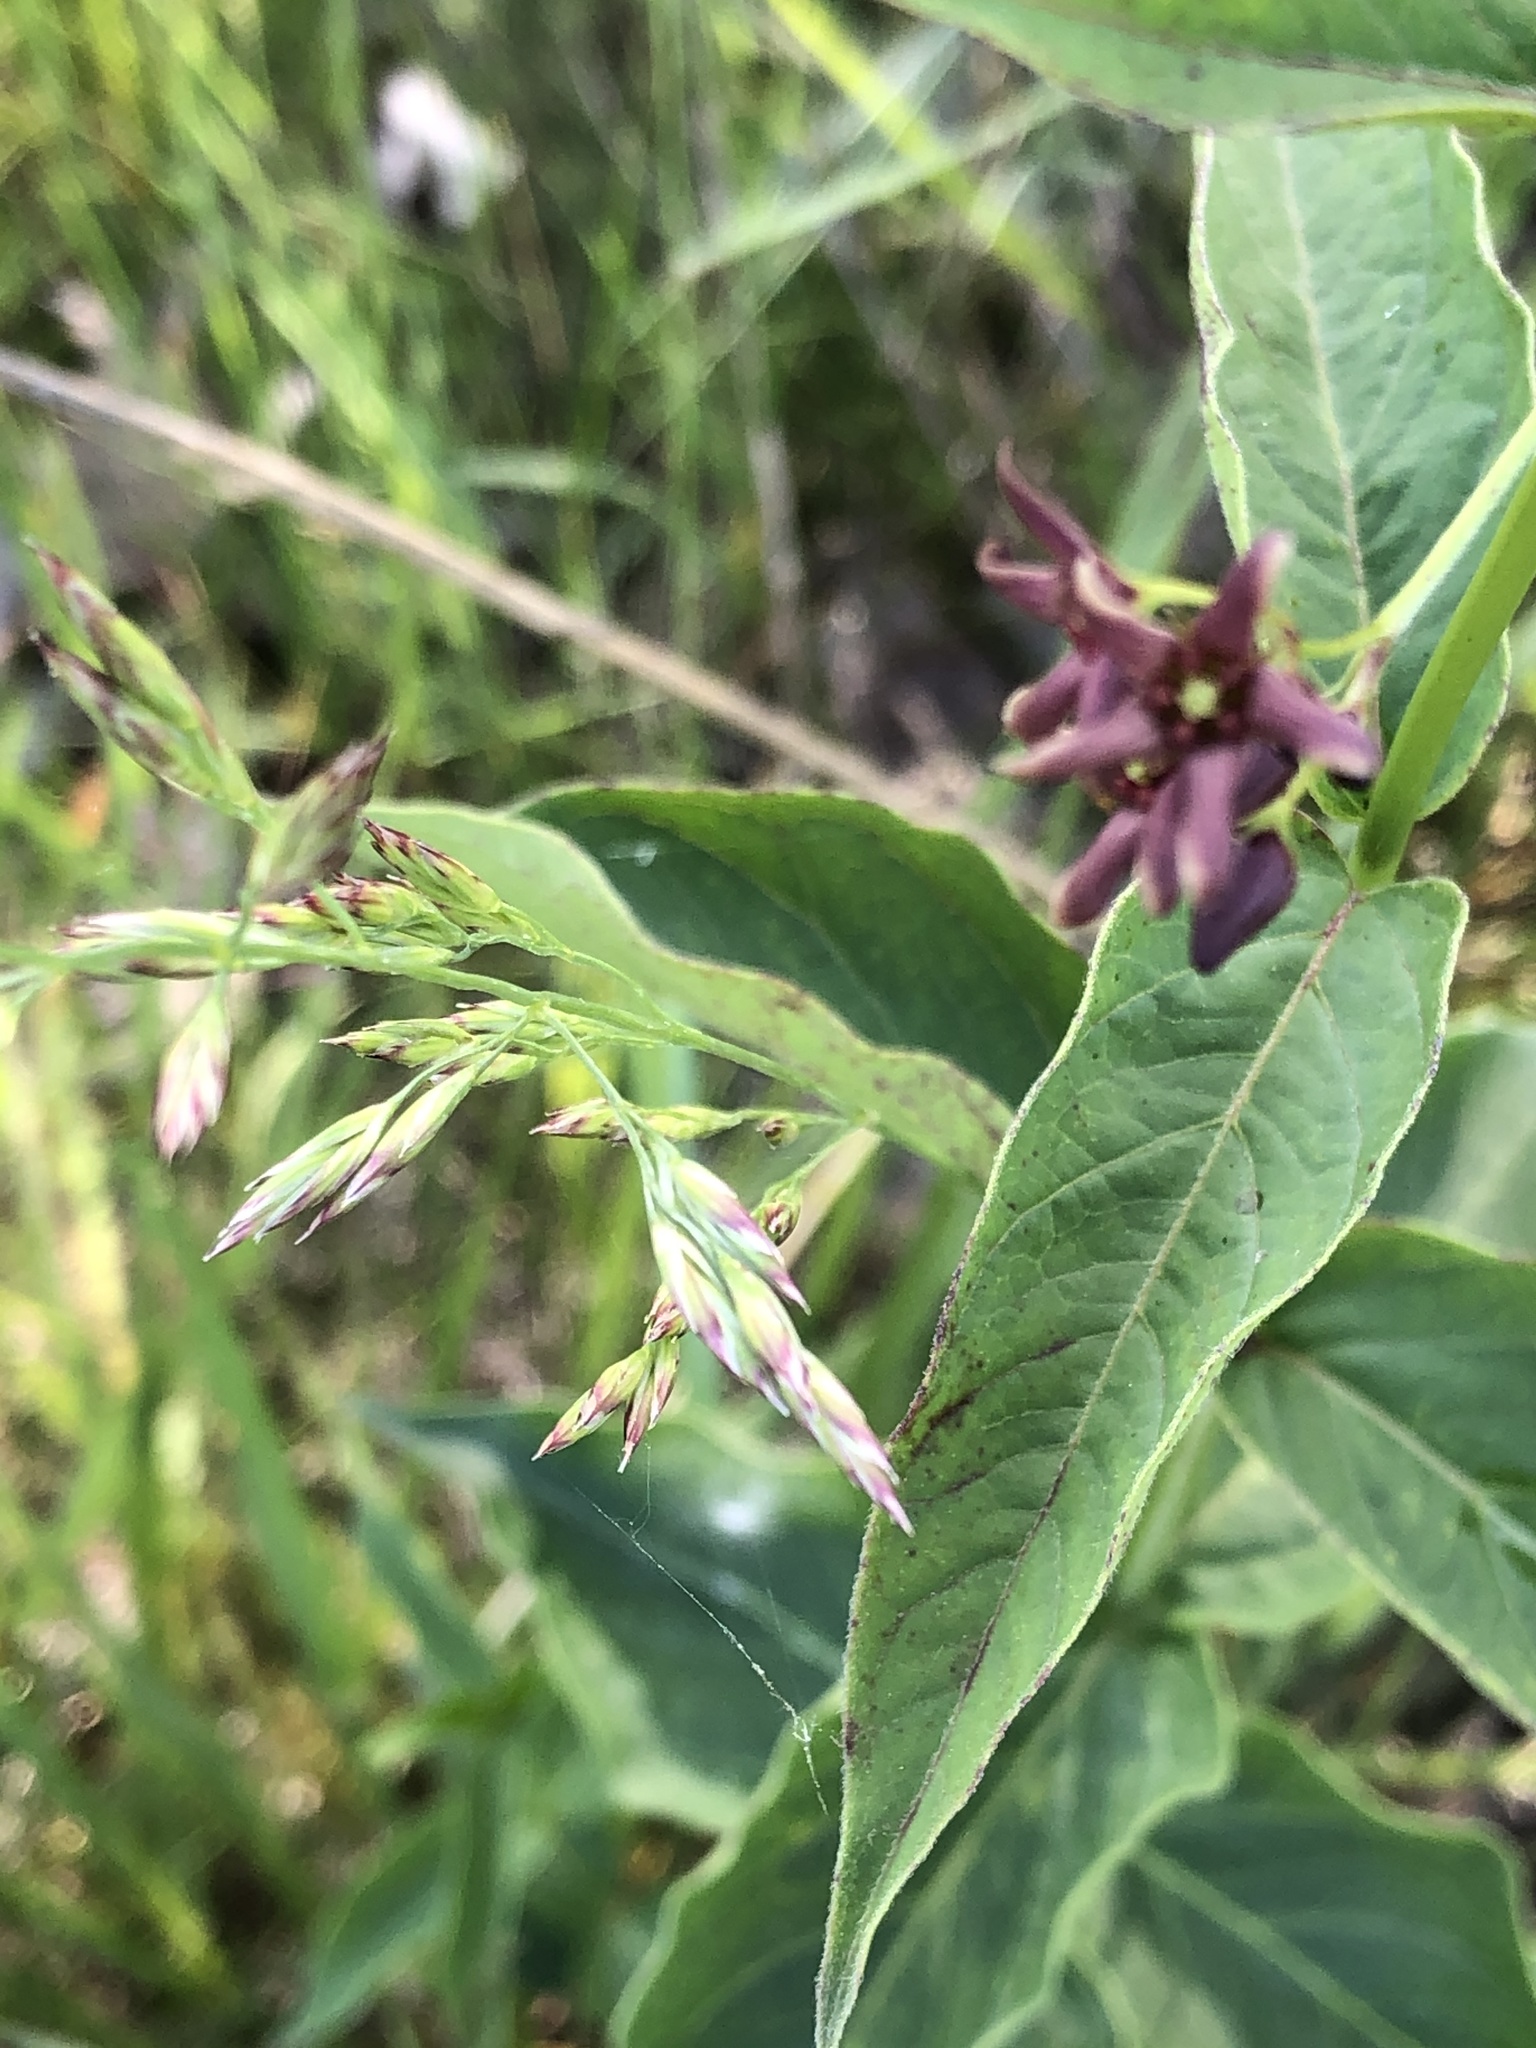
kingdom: Plantae
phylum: Tracheophyta
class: Magnoliopsida
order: Gentianales
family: Apocynaceae
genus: Vincetoxicum
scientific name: Vincetoxicum rossicum
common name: Dog-strangling vine
